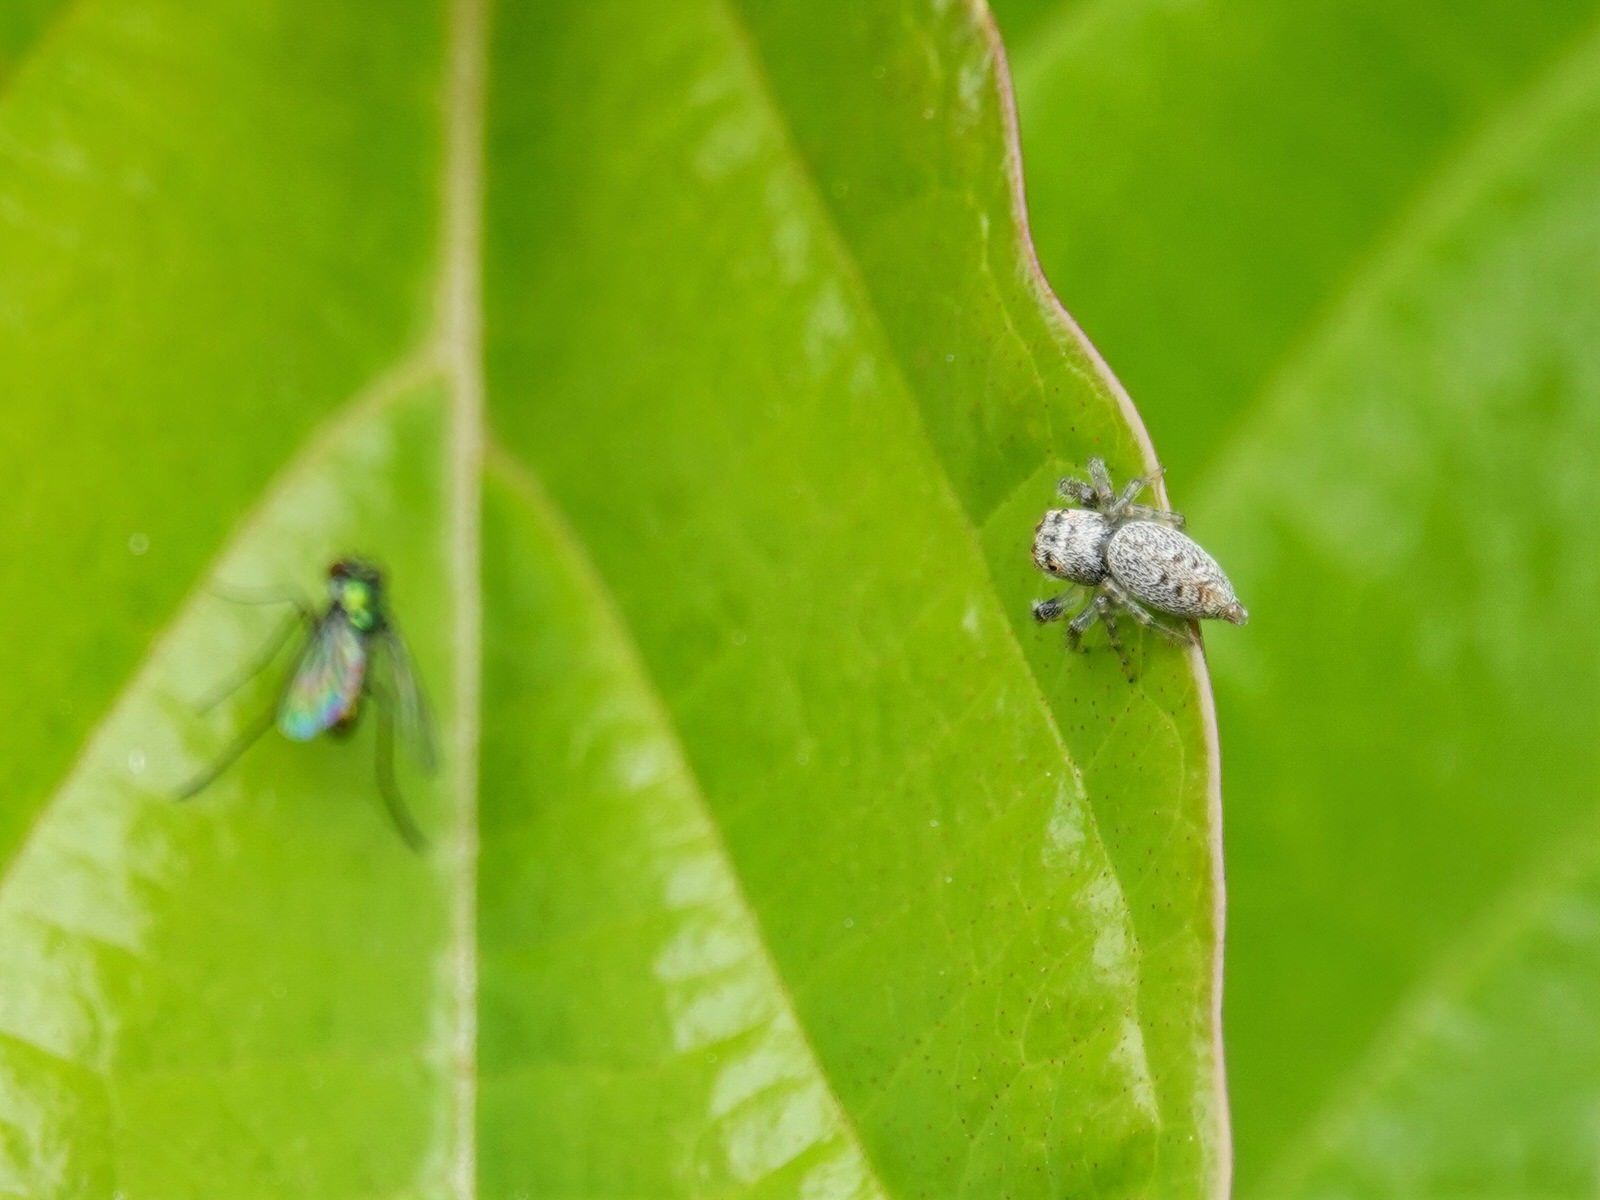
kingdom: Animalia
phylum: Arthropoda
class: Arachnida
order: Araneae
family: Salticidae
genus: Opisthoncus
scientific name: Opisthoncus polyphemus
